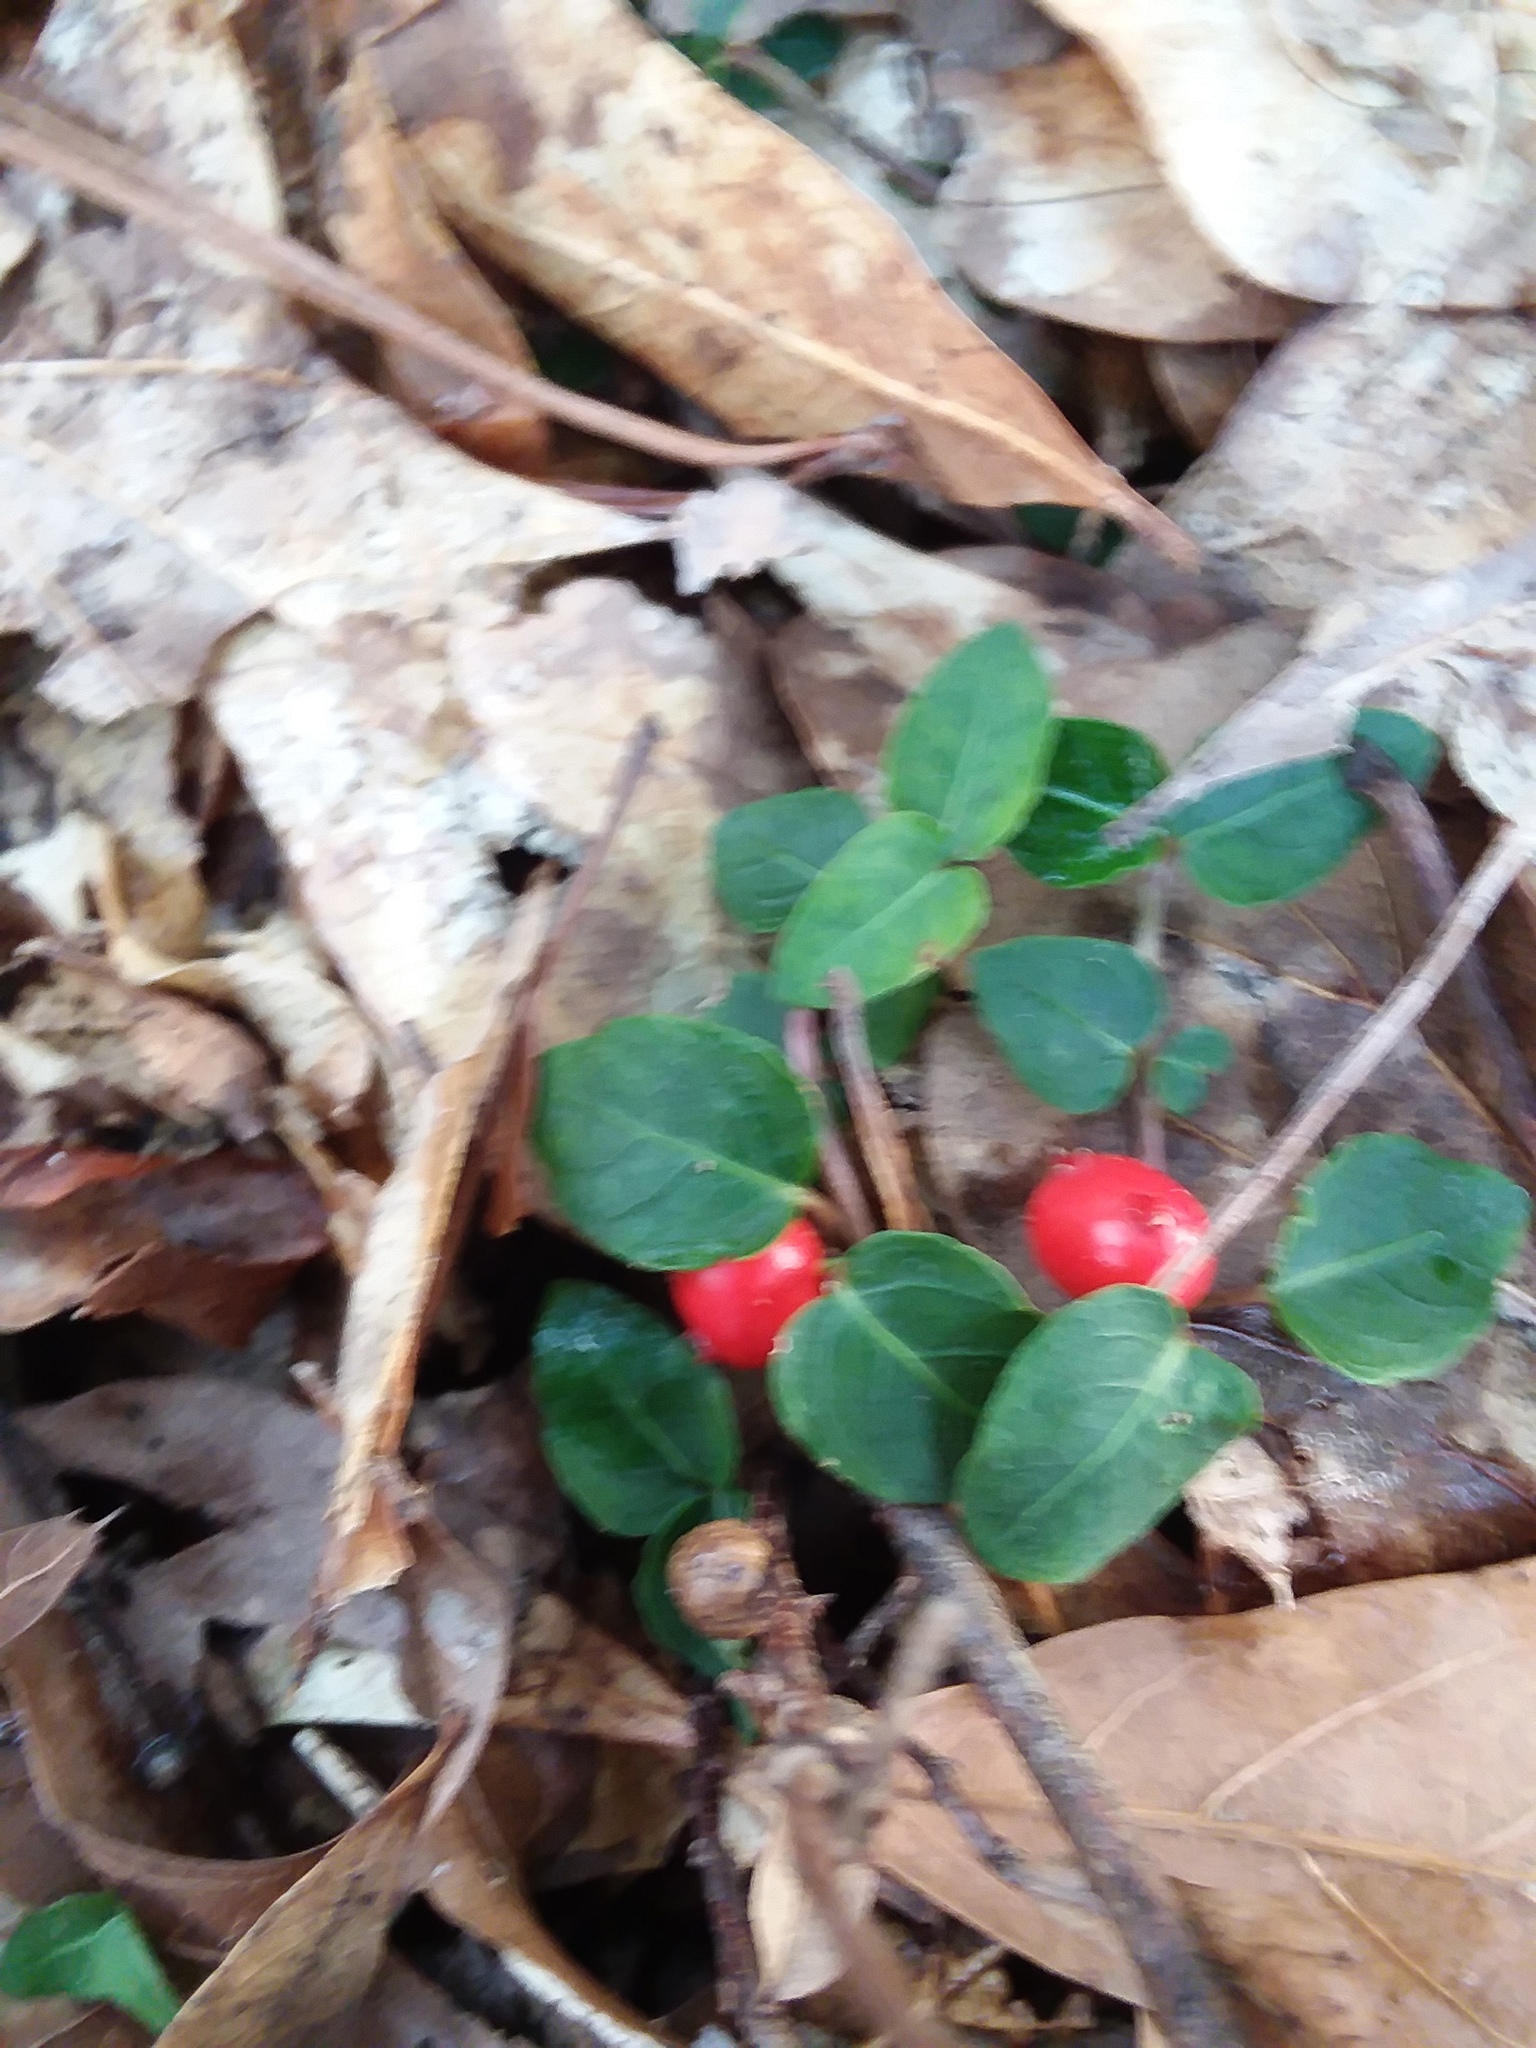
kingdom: Plantae
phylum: Tracheophyta
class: Magnoliopsida
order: Gentianales
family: Rubiaceae
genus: Mitchella
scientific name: Mitchella repens
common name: Partridge-berry
